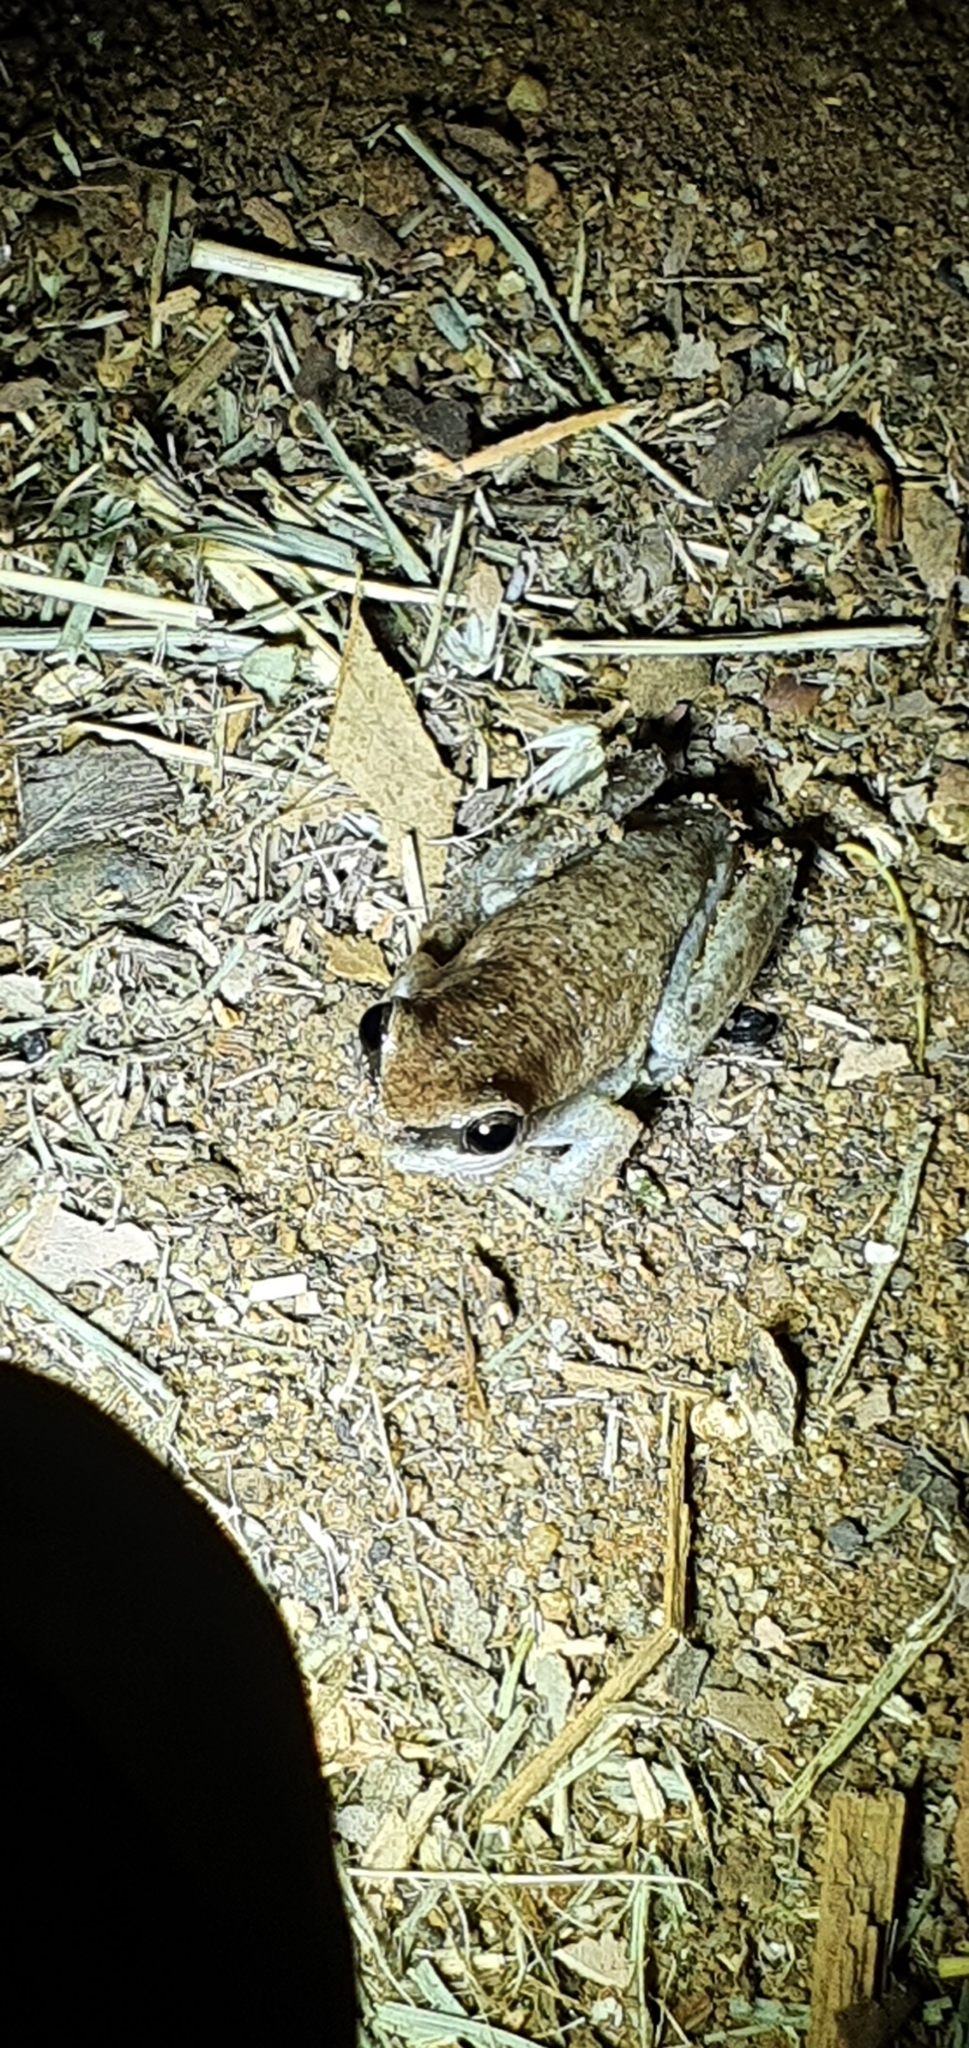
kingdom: Animalia
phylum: Chordata
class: Amphibia
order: Anura
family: Pelodryadidae
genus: Litoria
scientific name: Litoria rubella
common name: Desert tree frog
